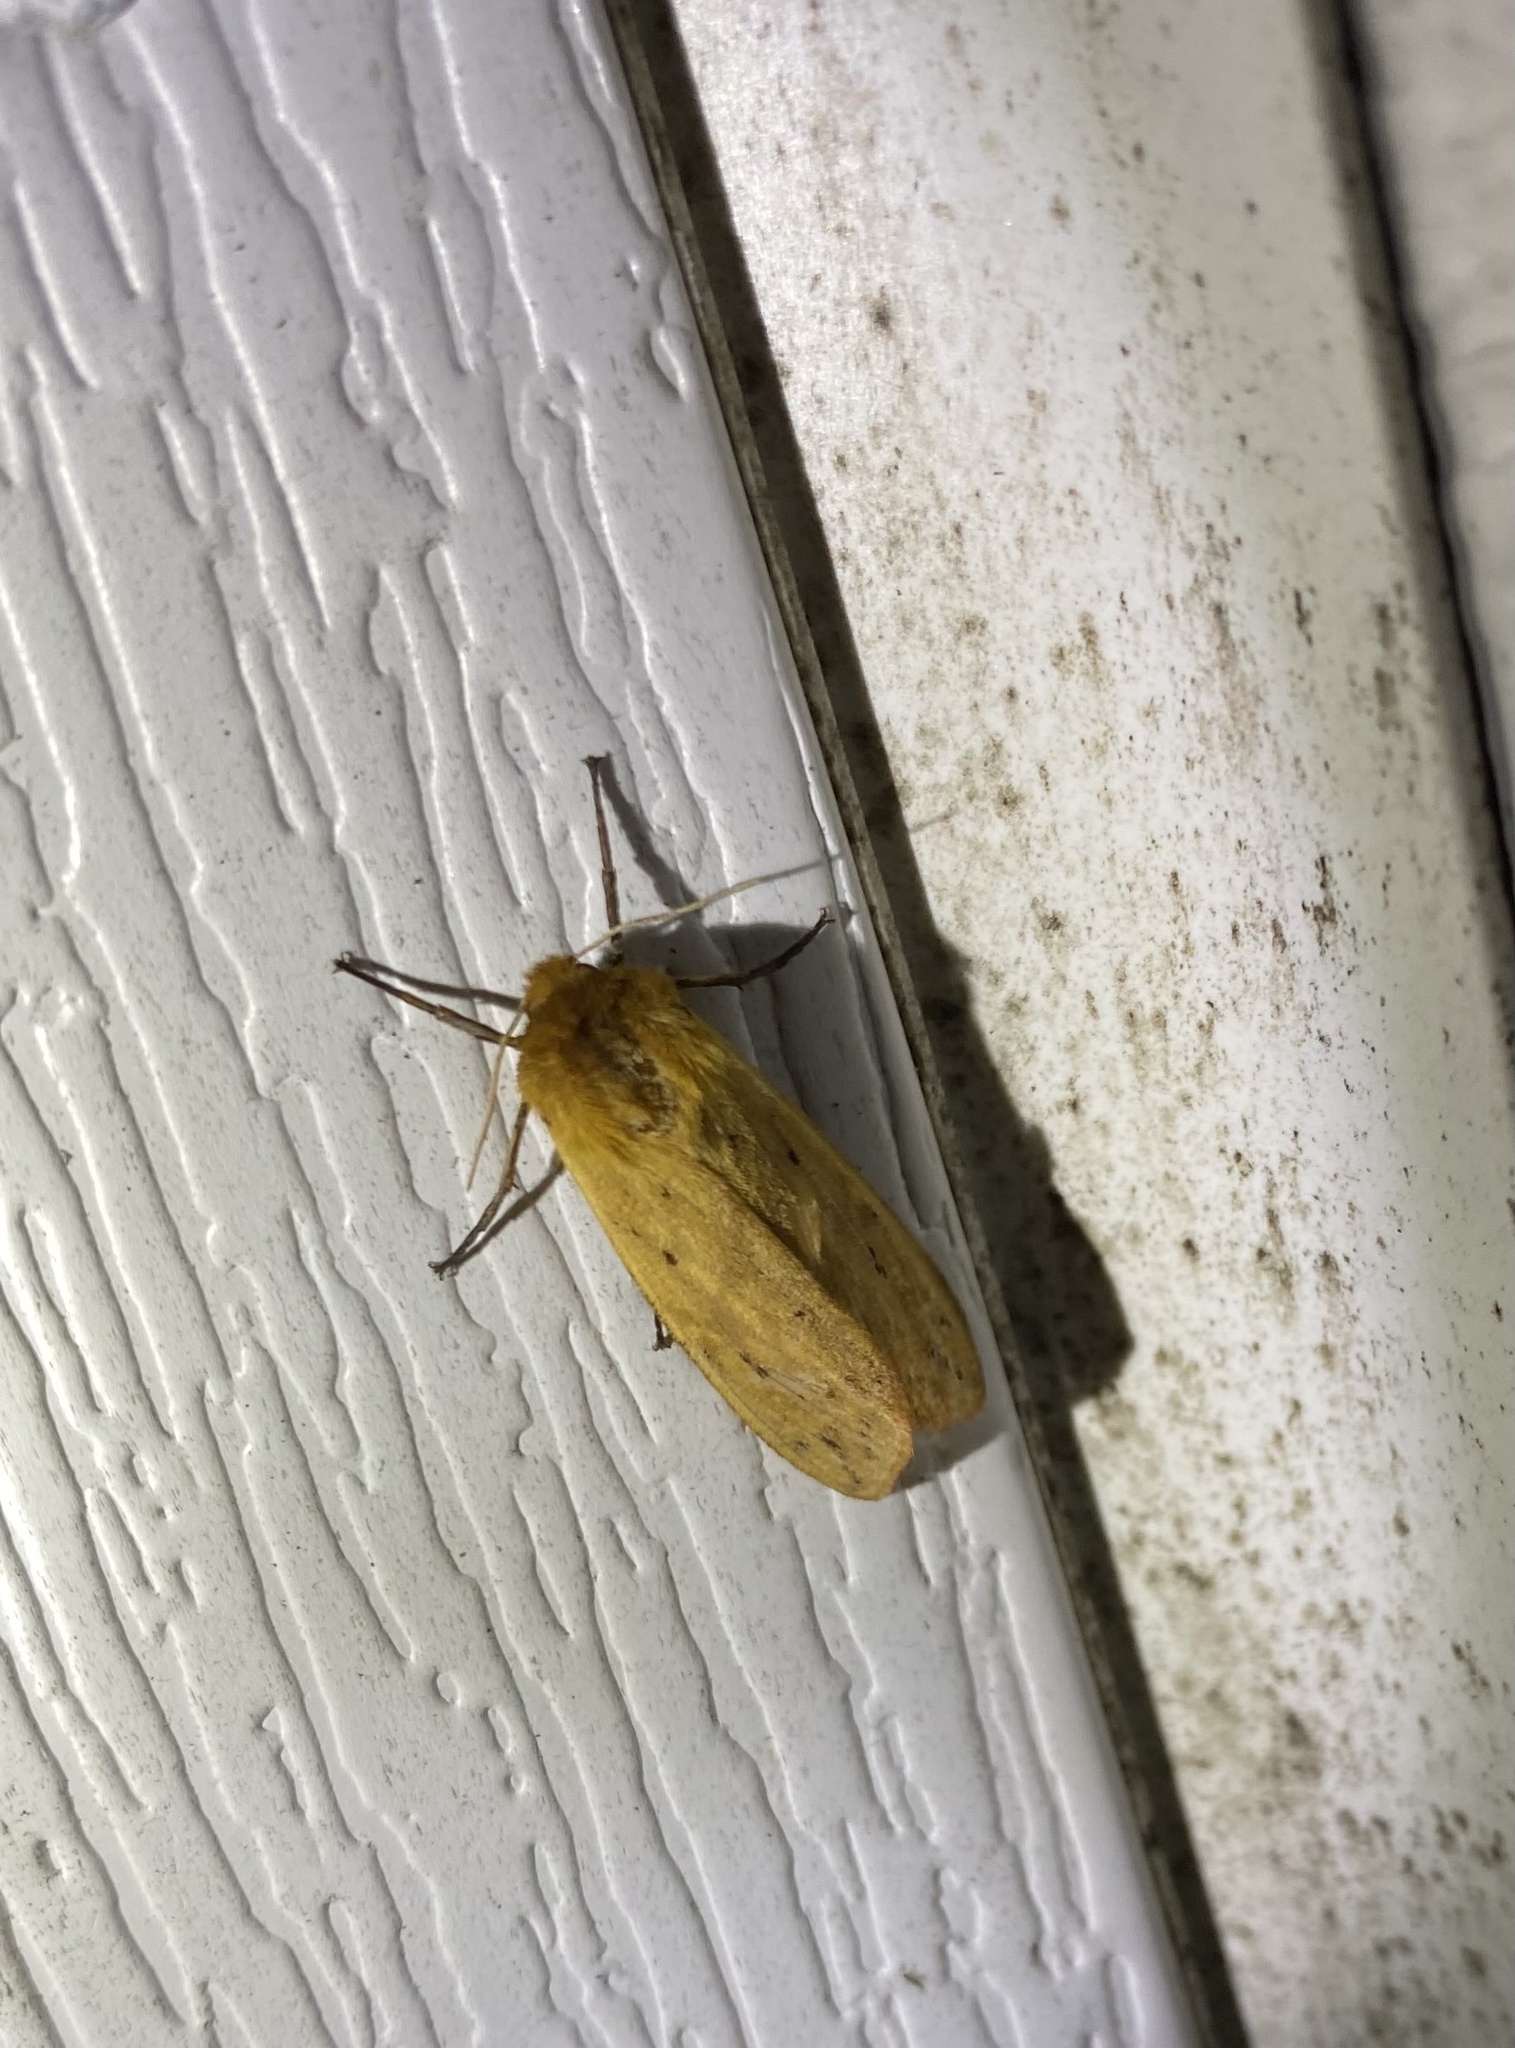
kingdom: Animalia
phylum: Arthropoda
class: Insecta
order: Lepidoptera
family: Erebidae
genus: Pyrrharctia
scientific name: Pyrrharctia isabella
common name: Isabella tiger moth
